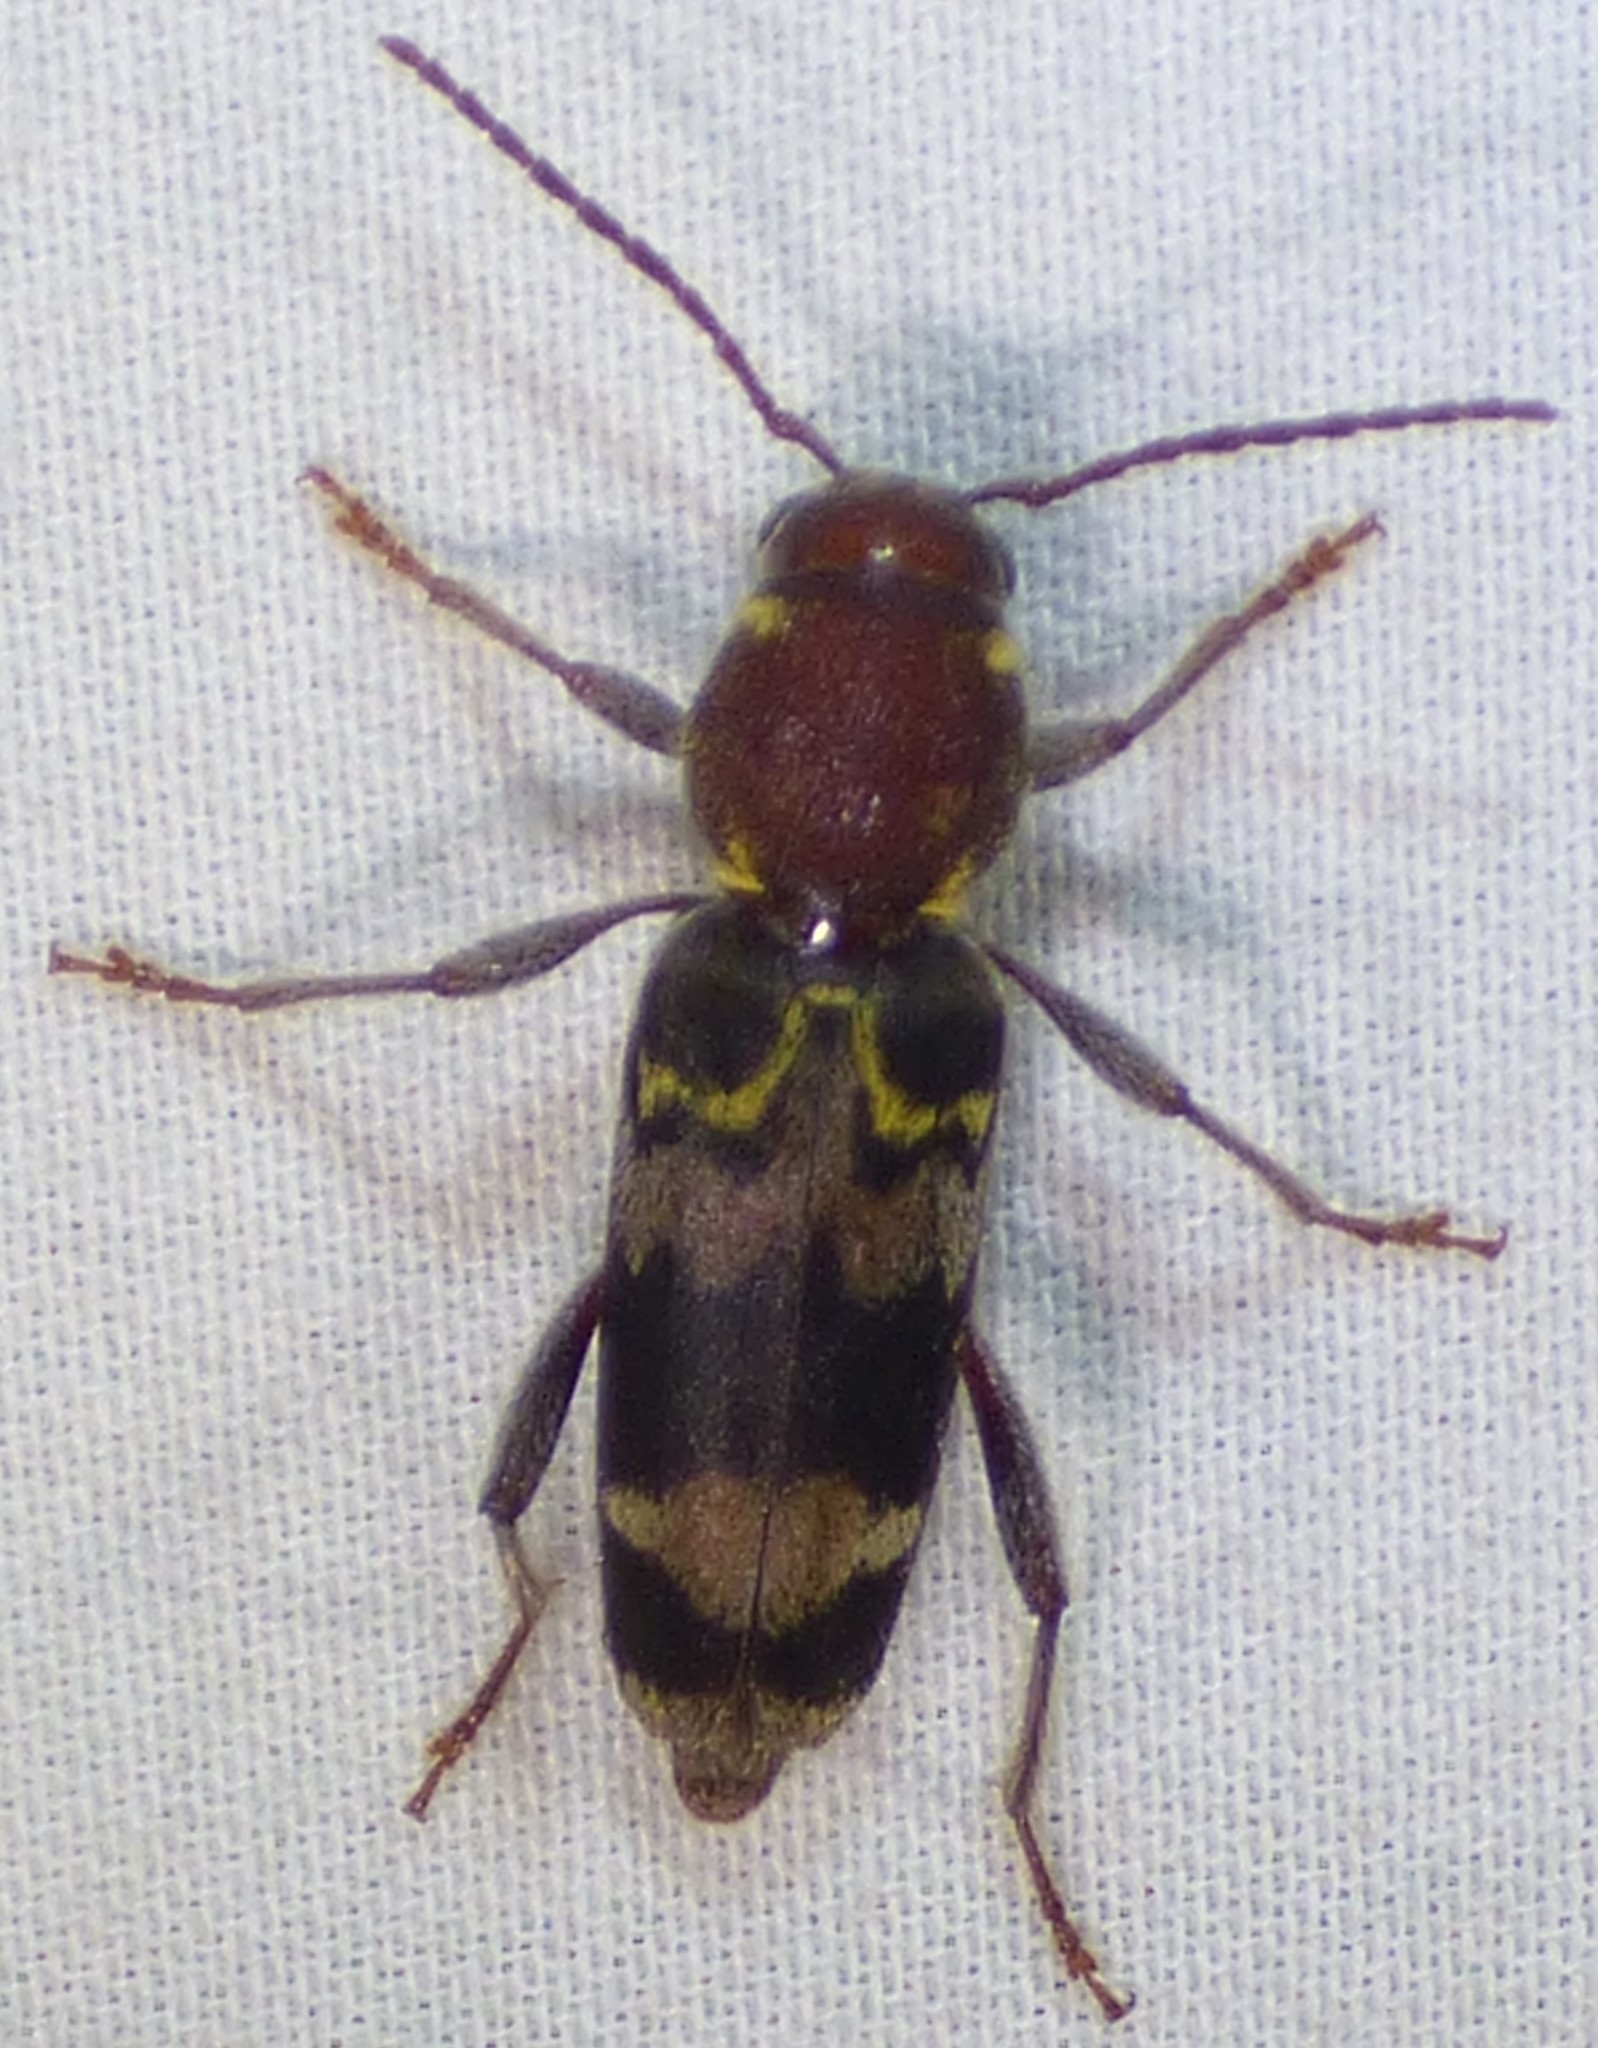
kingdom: Animalia
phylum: Arthropoda
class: Insecta
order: Coleoptera
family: Cerambycidae
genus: Xylotrechus
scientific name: Xylotrechus colonus
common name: Long-horned beetle
